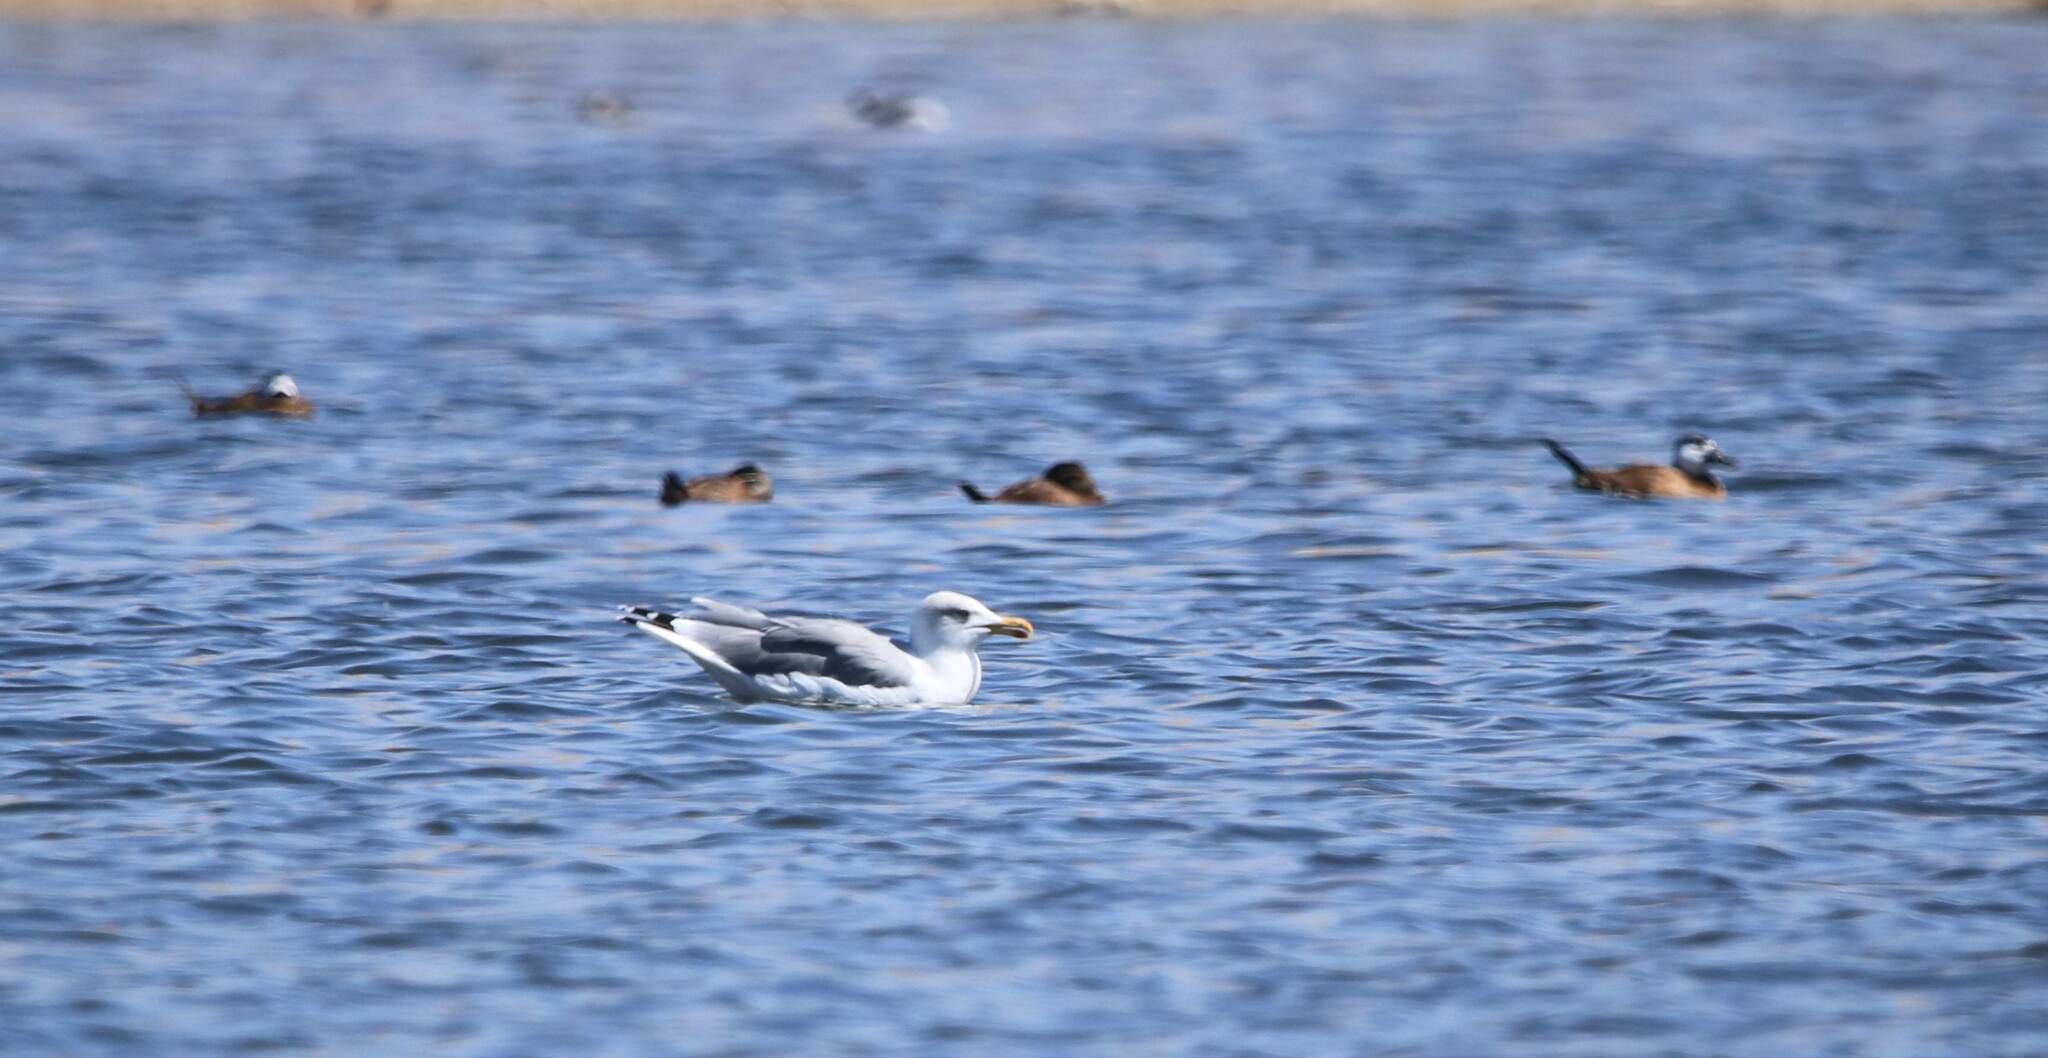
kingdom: Animalia
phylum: Chordata
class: Aves
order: Charadriiformes
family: Laridae
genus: Larus
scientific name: Larus michahellis
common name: Yellow-legged gull
